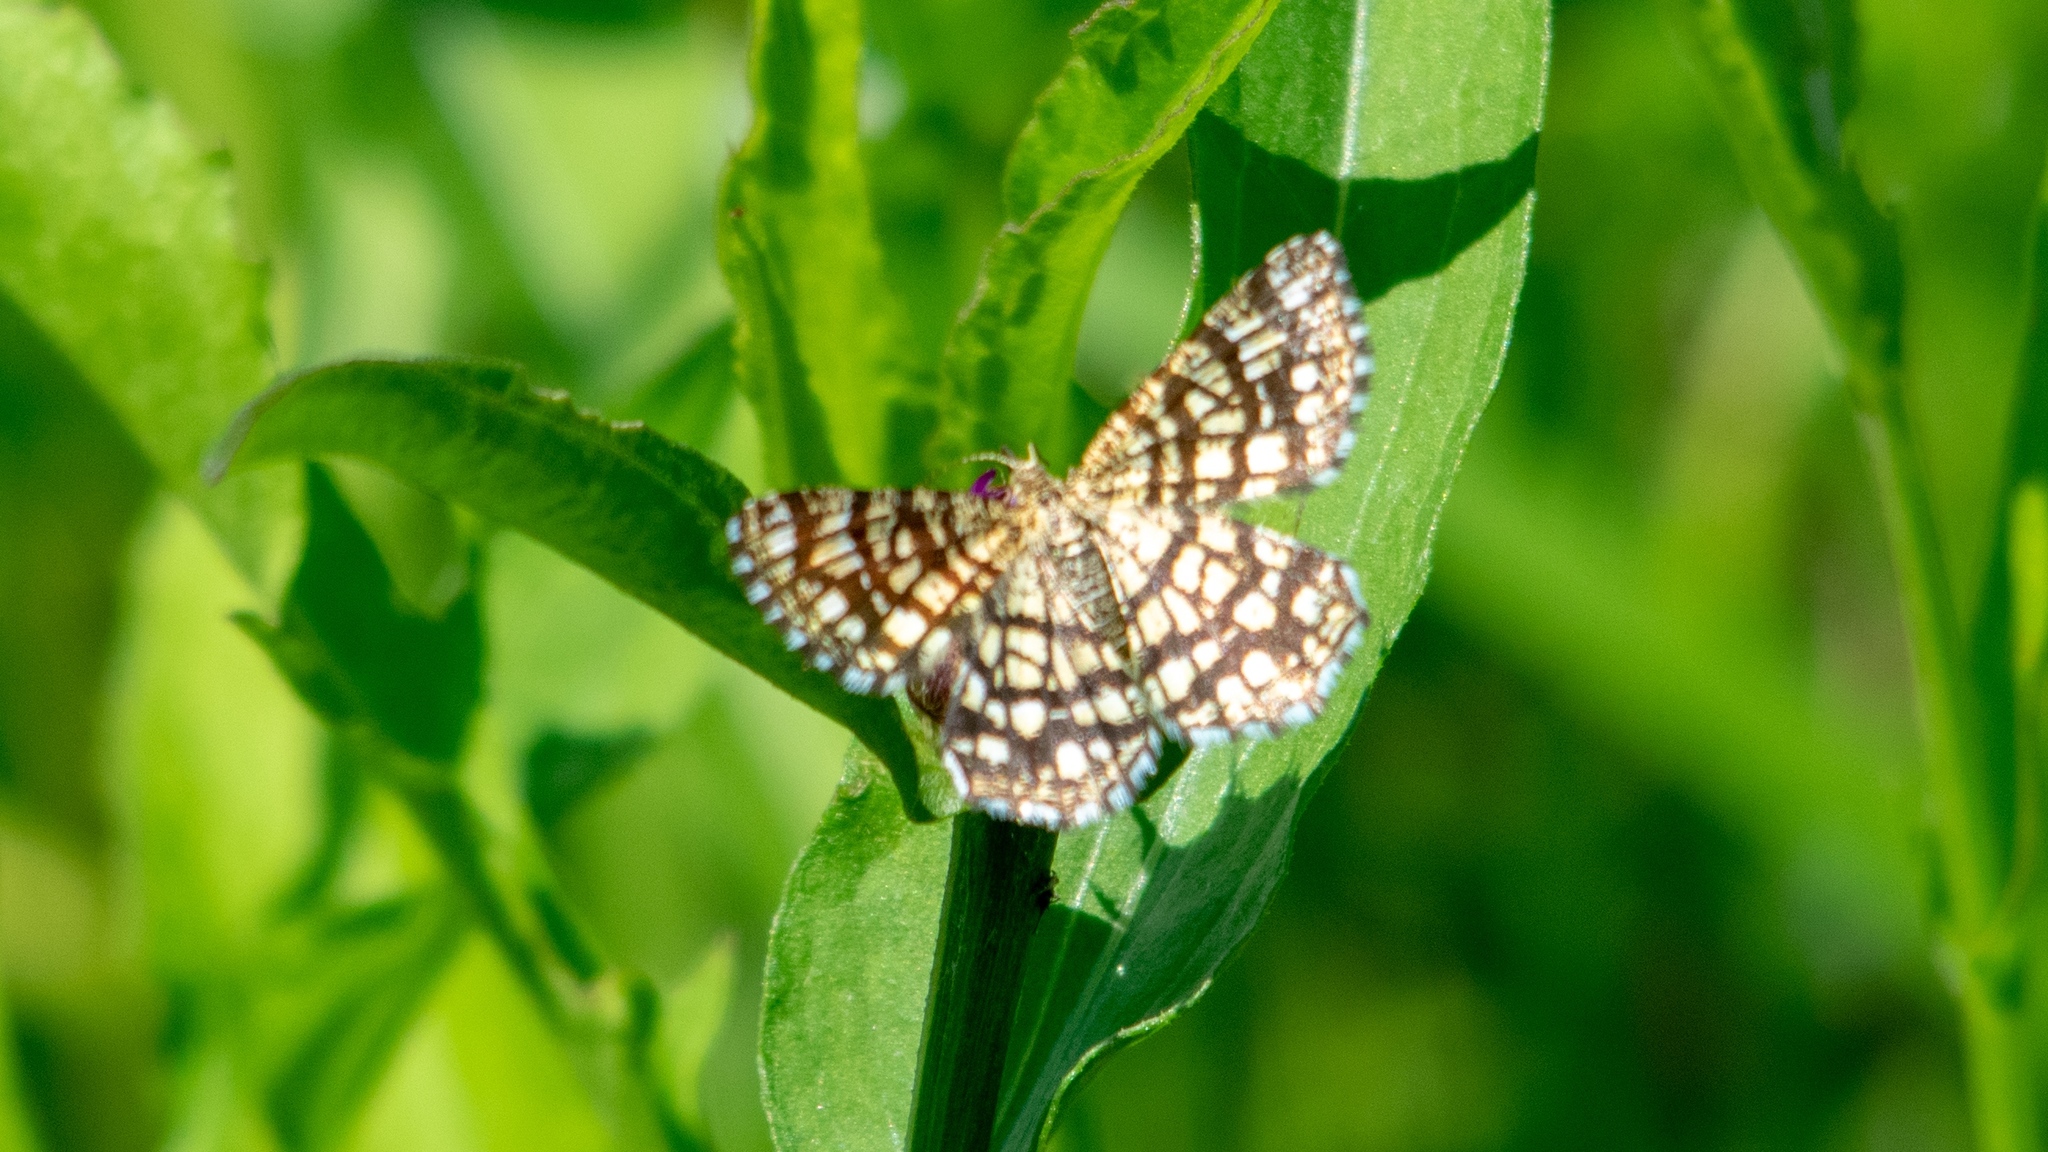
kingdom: Animalia
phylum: Arthropoda
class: Insecta
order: Lepidoptera
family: Geometridae
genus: Chiasmia
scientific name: Chiasmia clathrata
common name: Latticed heath
